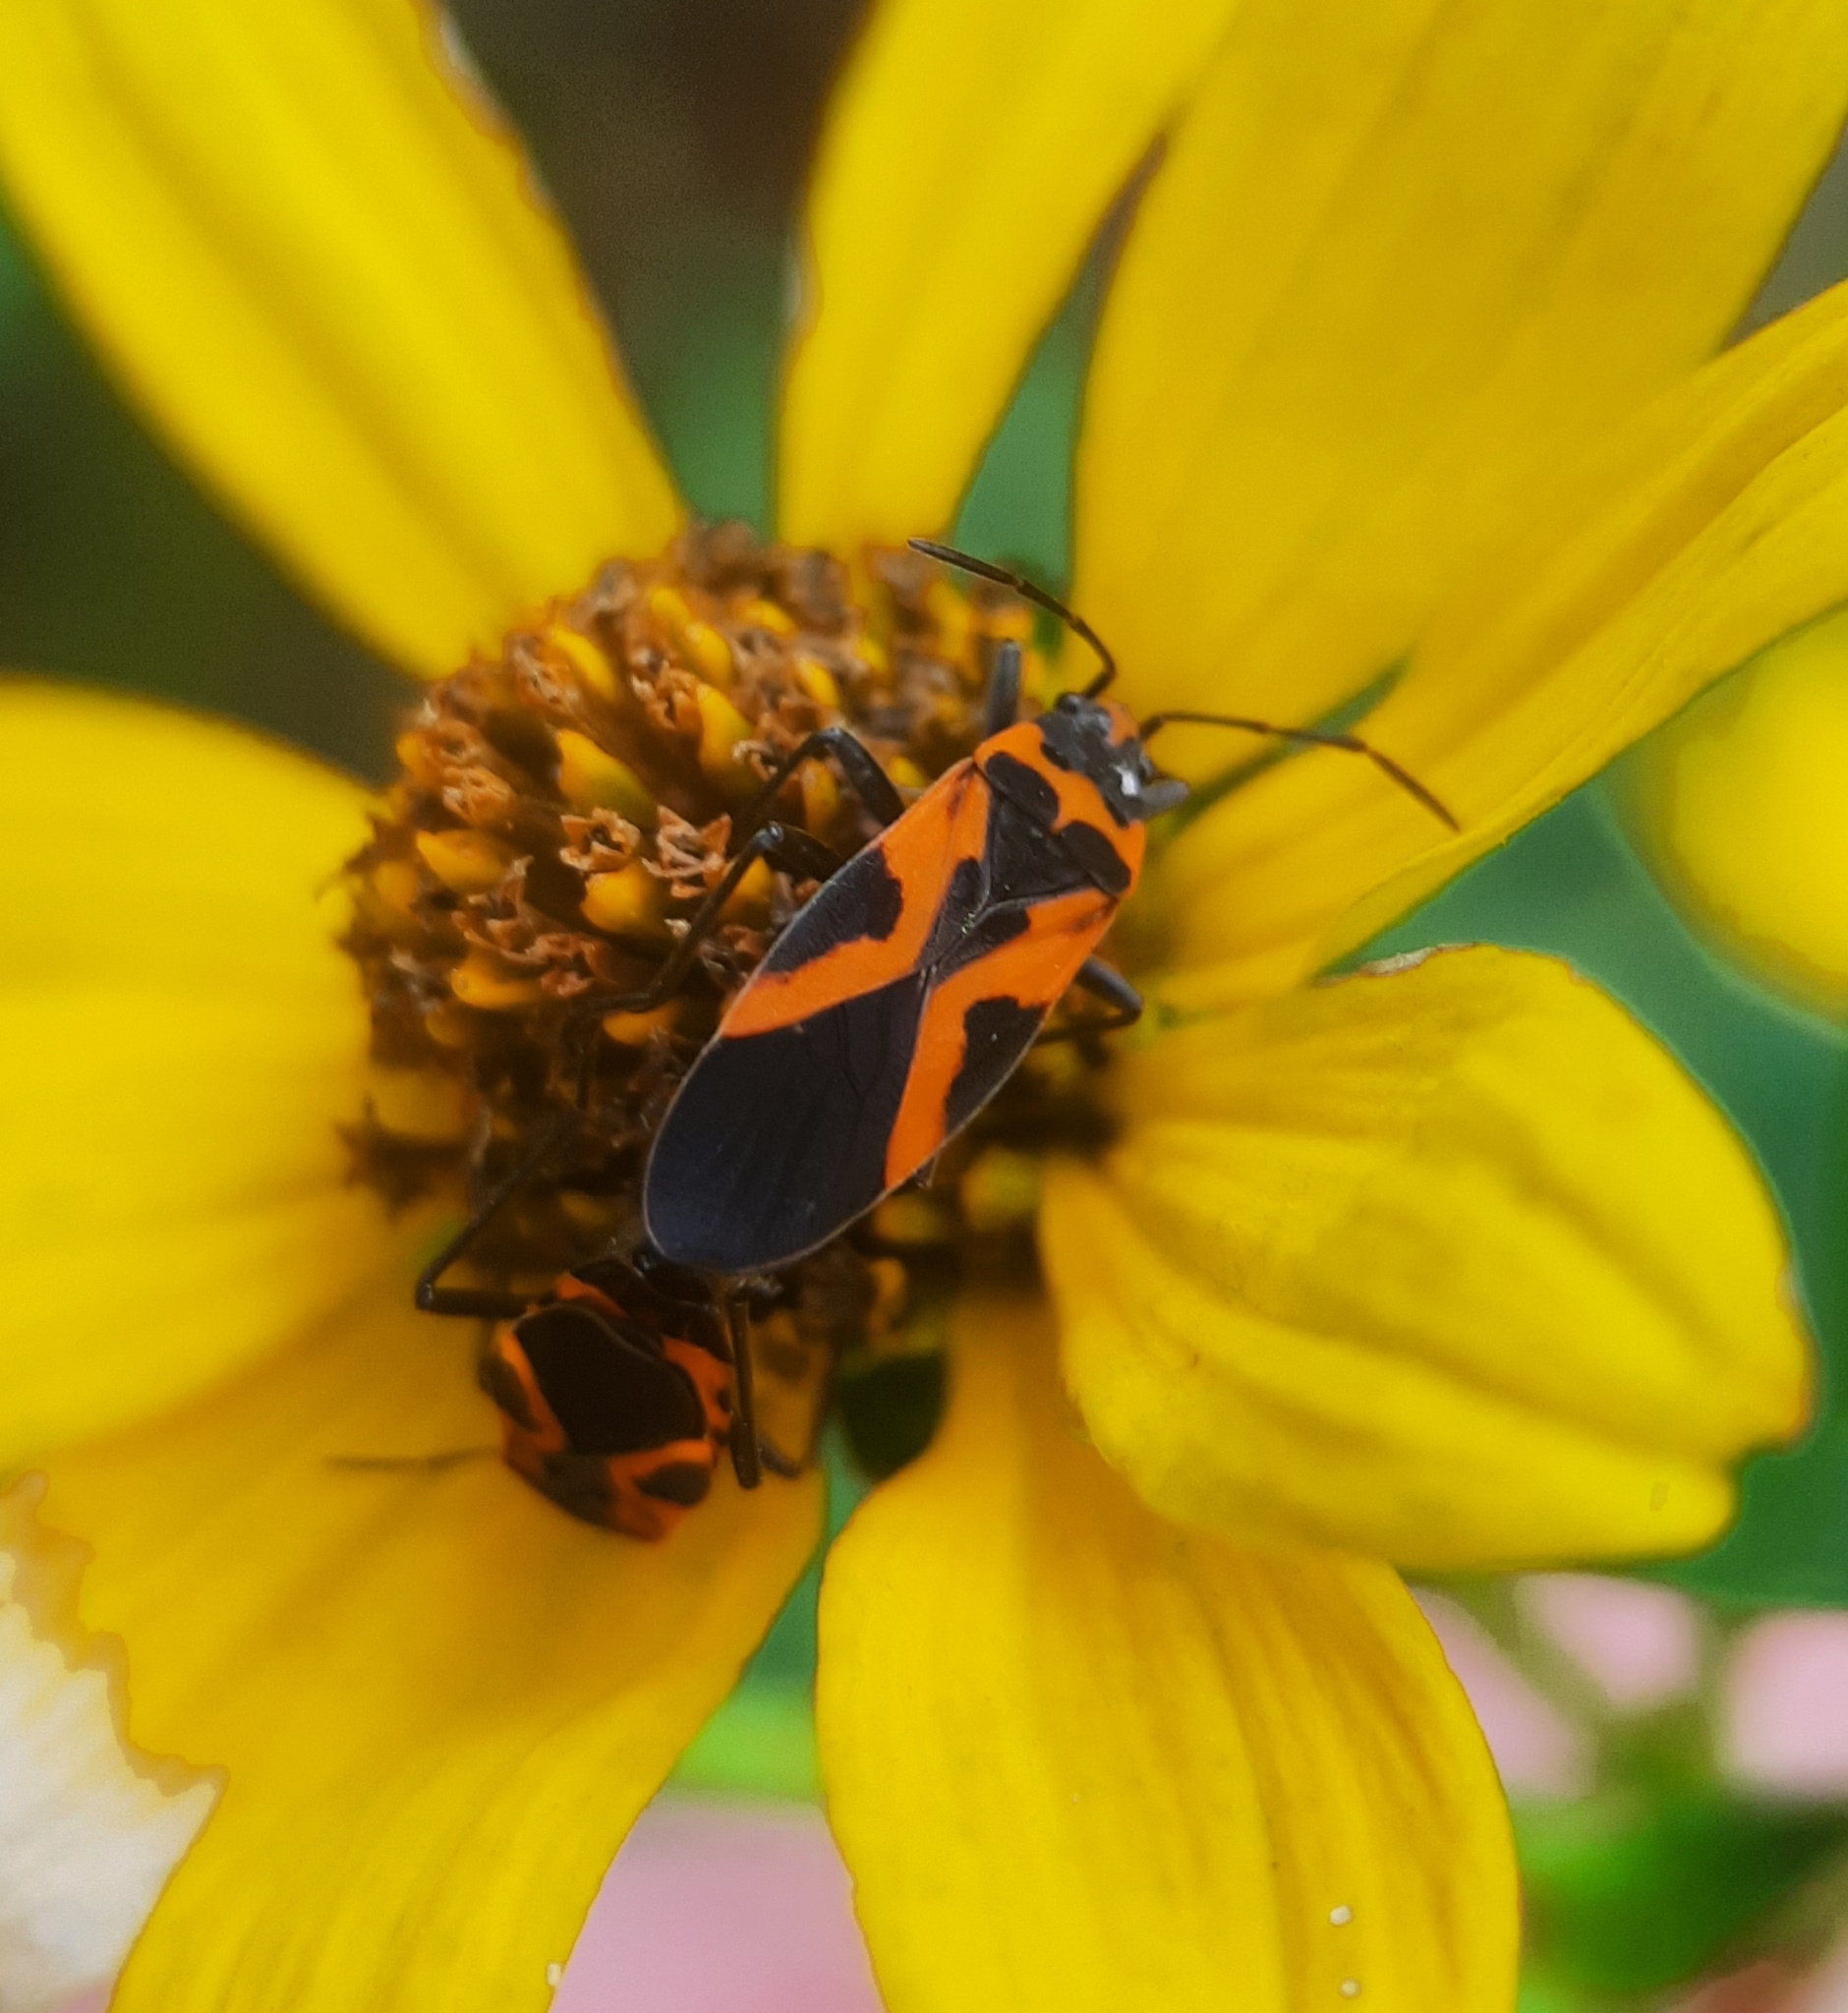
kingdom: Animalia
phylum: Arthropoda
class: Insecta
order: Hemiptera
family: Lygaeidae
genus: Lygaeus
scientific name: Lygaeus turcicus
